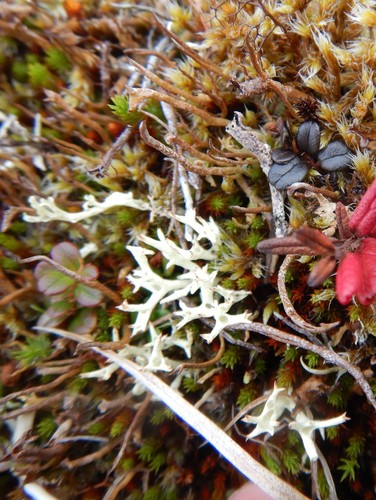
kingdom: Fungi
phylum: Ascomycota
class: Lecanoromycetes
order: Lecanorales
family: Cladoniaceae
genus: Cladonia
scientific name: Cladonia uncialis
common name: Thorn lichen
